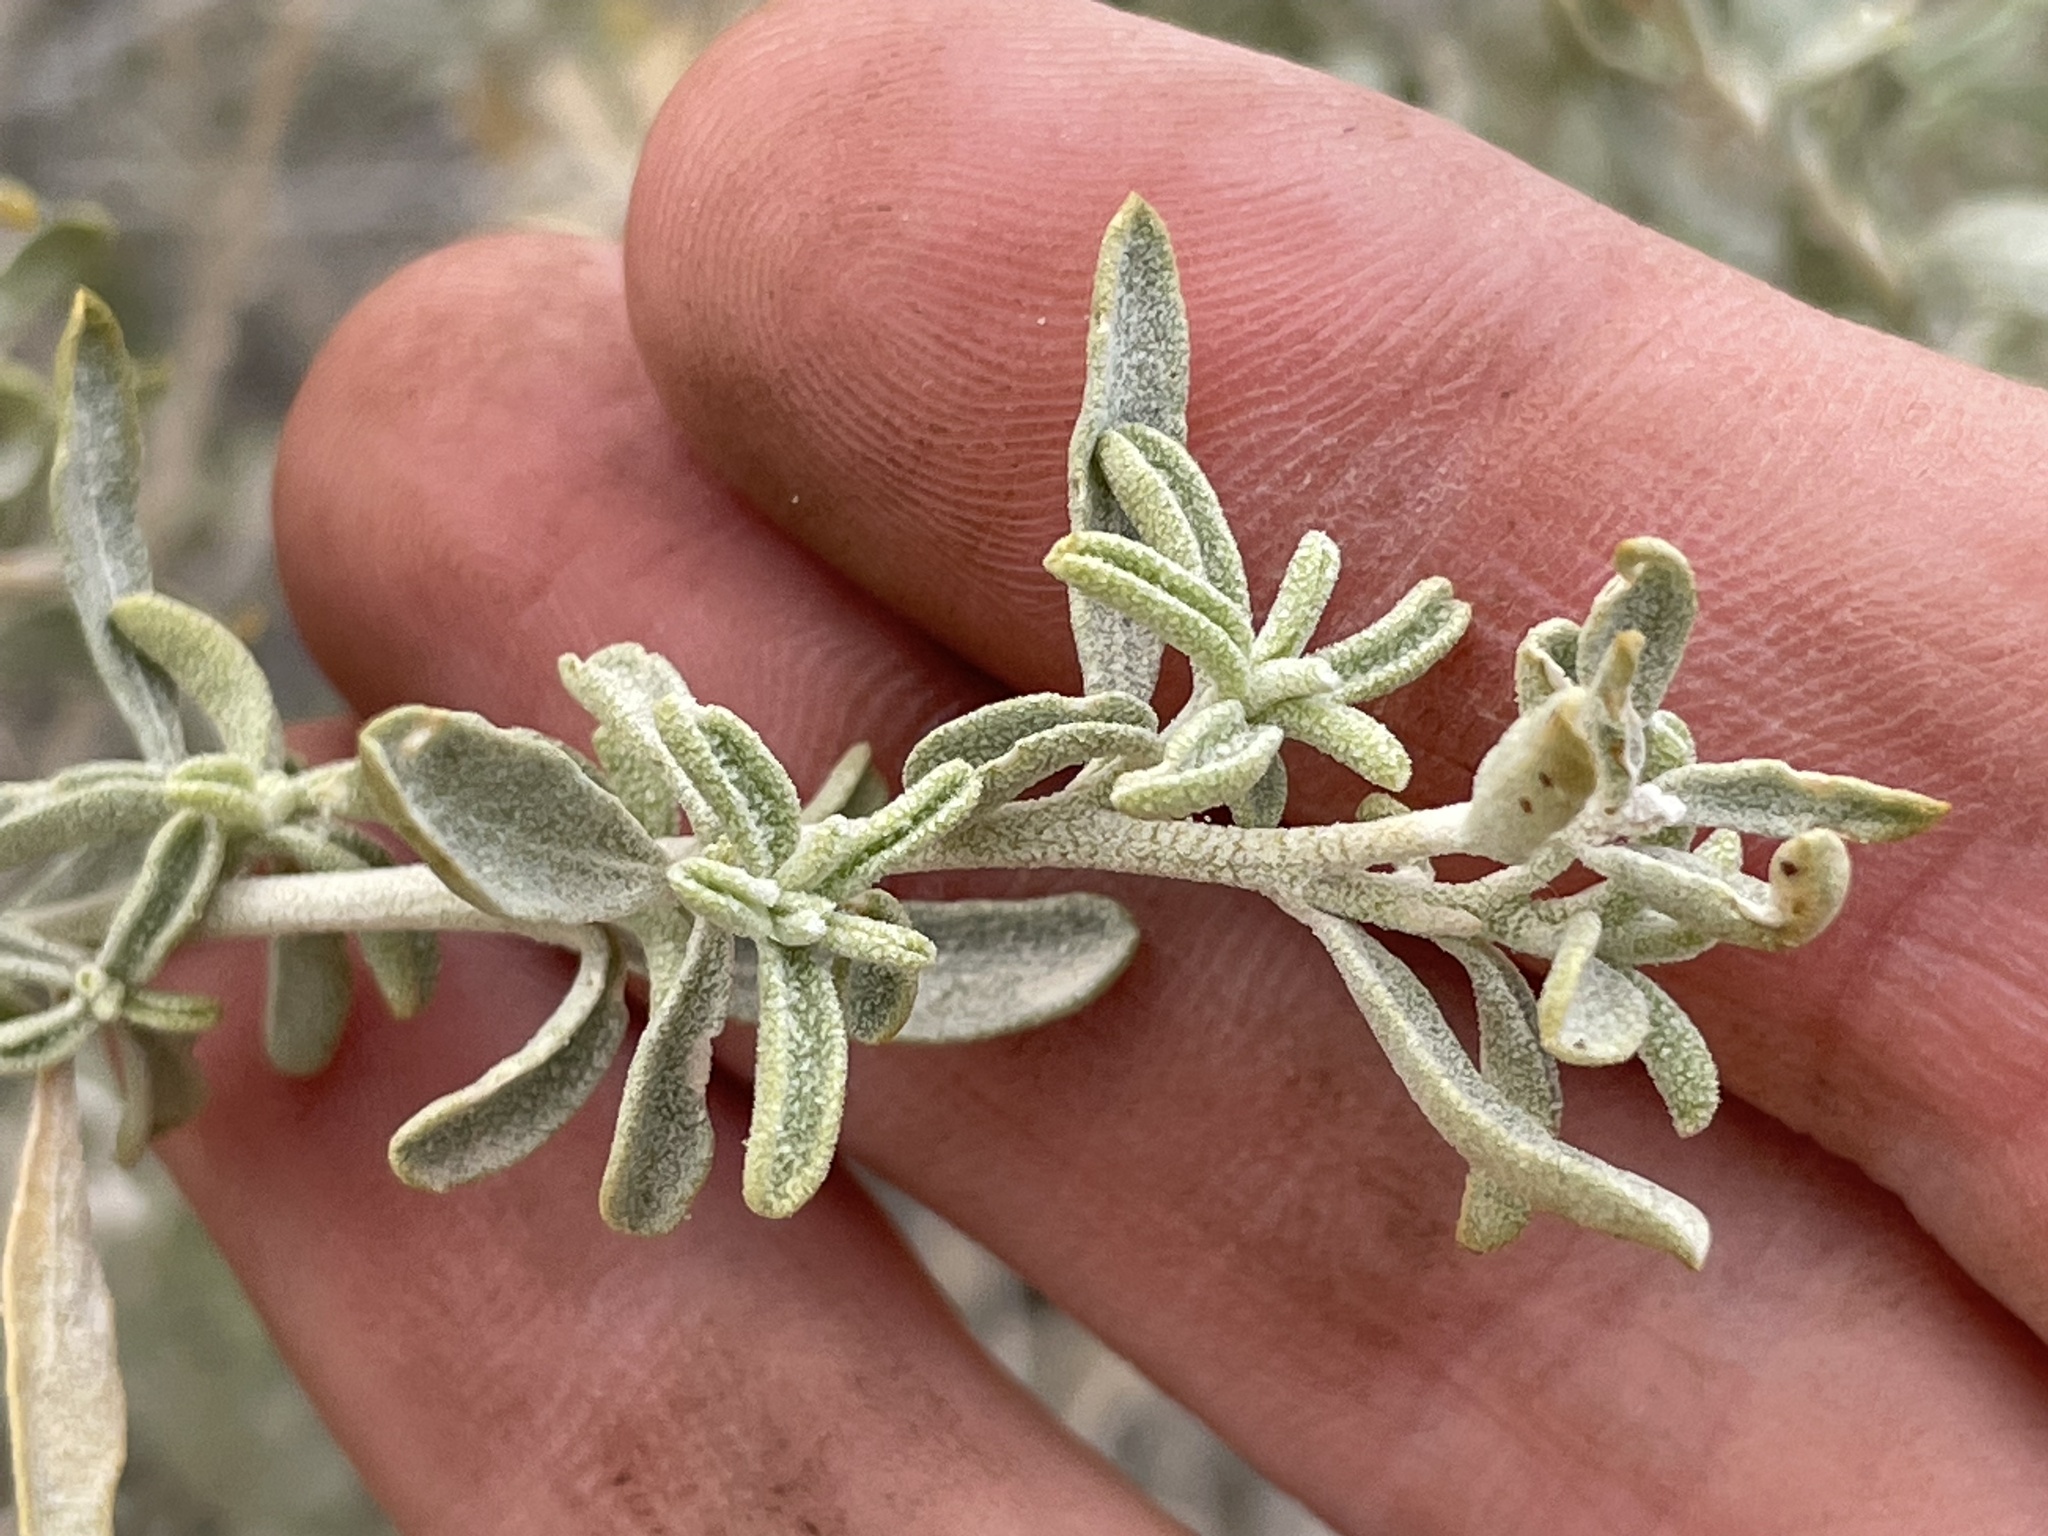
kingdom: Plantae
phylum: Tracheophyta
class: Magnoliopsida
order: Caryophyllales
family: Amaranthaceae
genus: Atriplex
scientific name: Atriplex canescens
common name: Four-wing saltbush
